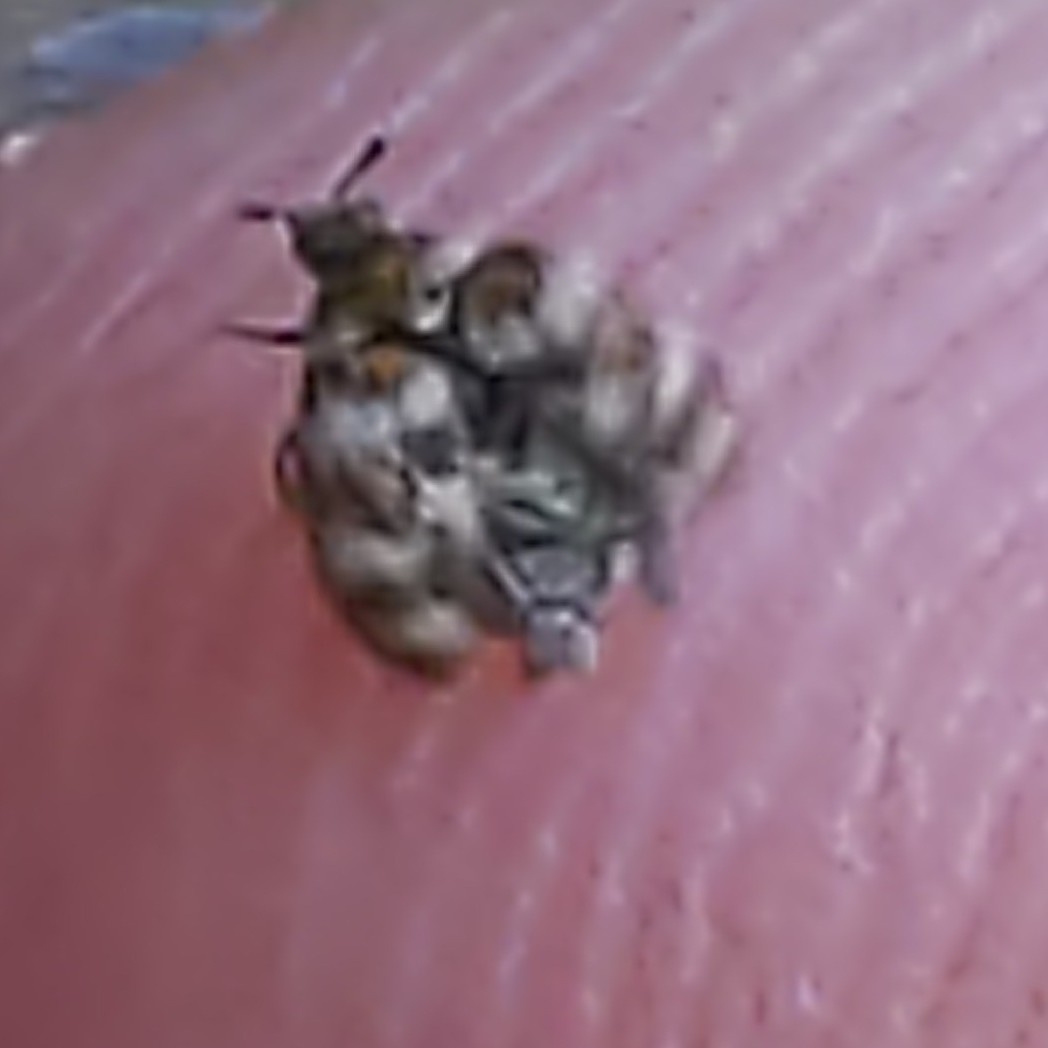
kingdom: Animalia
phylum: Arthropoda
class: Insecta
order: Coleoptera
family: Dermestidae
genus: Anthrenus
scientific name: Anthrenus verbasci
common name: Varied carpet beetle
